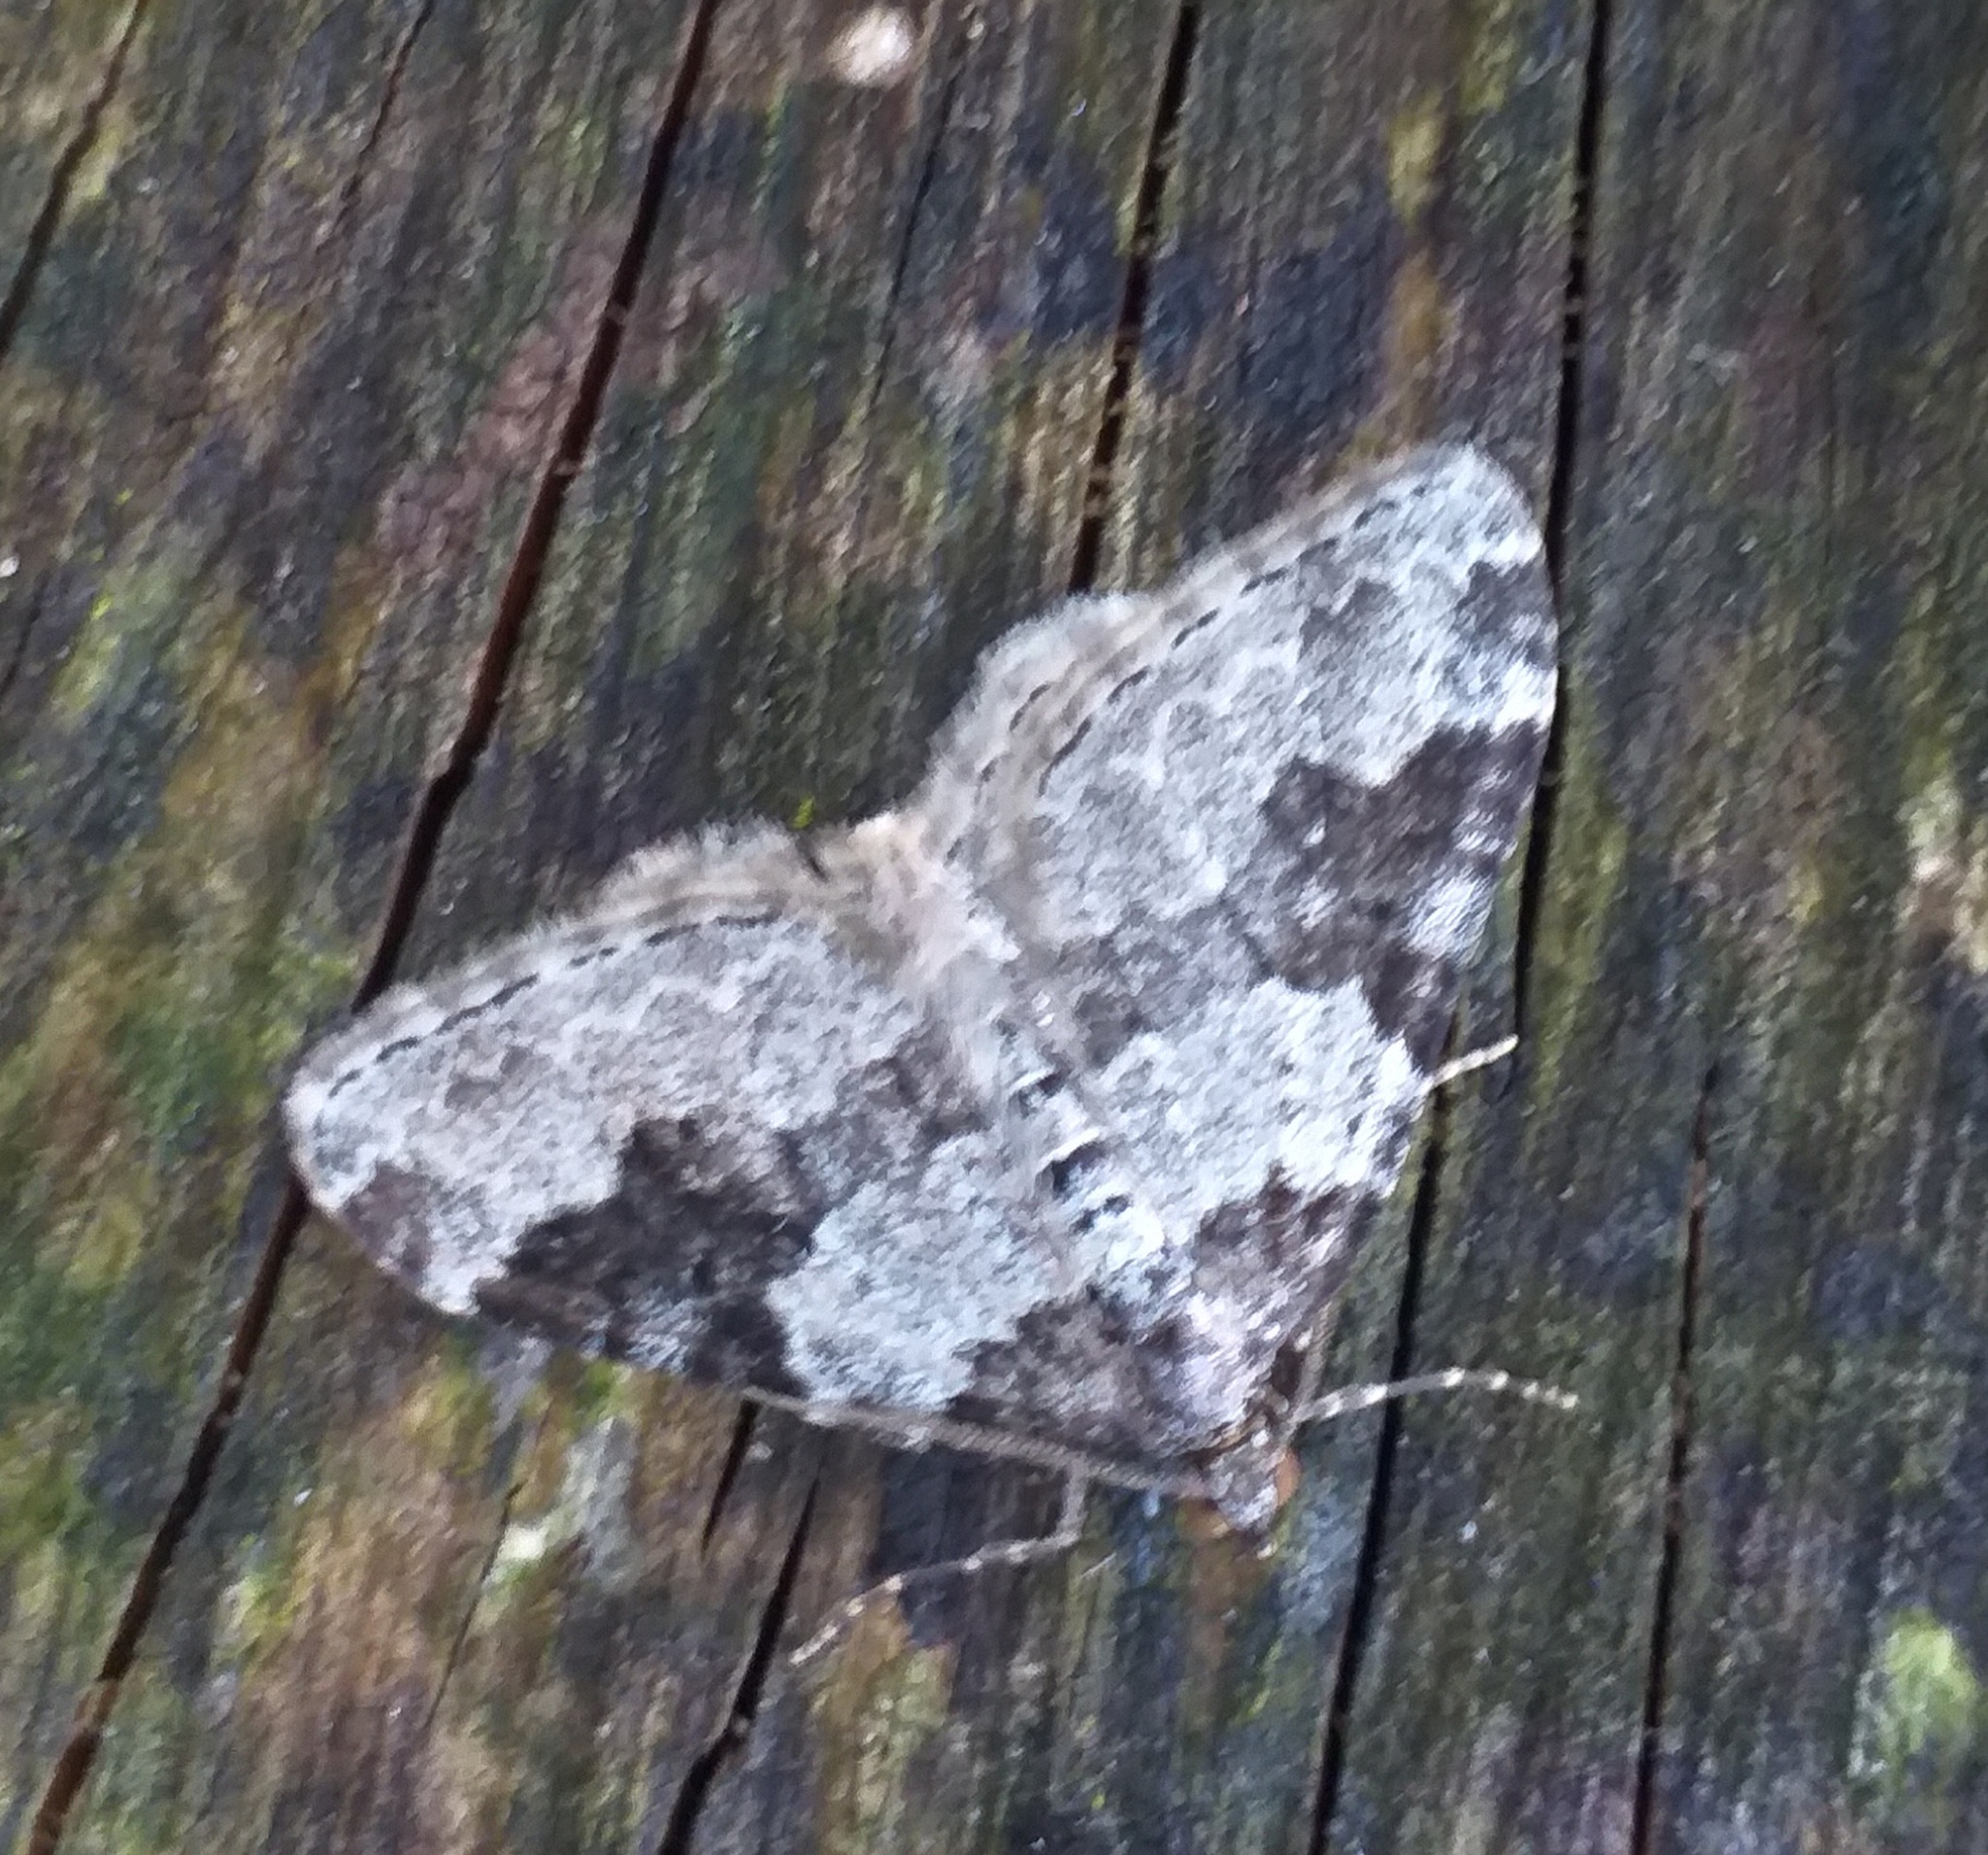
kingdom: Animalia
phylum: Arthropoda
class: Insecta
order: Lepidoptera
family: Geometridae
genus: Xanthorhoe
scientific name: Xanthorhoe fluctuata
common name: Garden carpet
